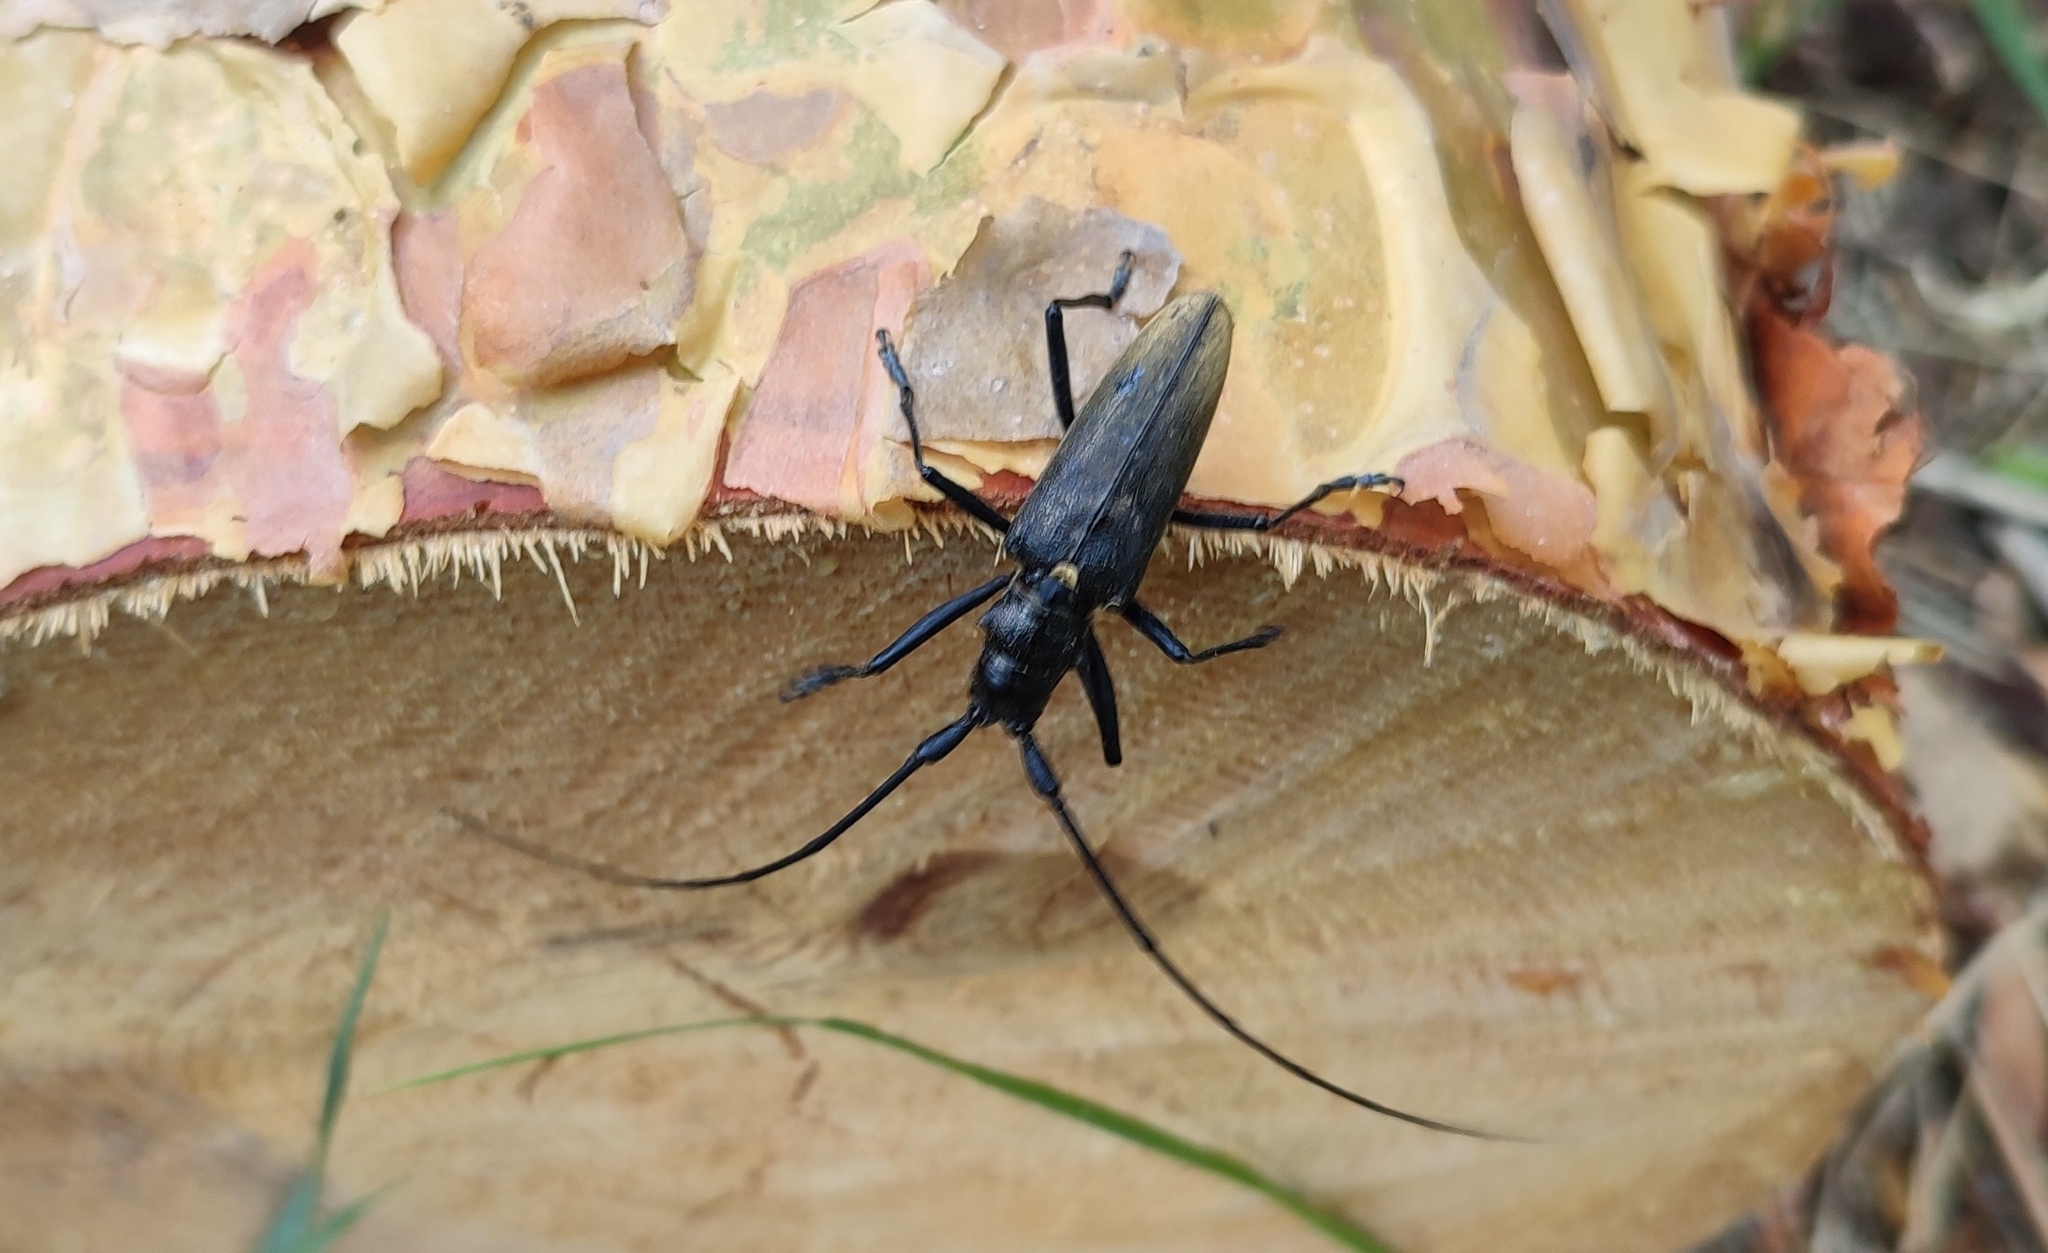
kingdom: Animalia
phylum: Arthropoda
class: Insecta
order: Coleoptera
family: Cerambycidae
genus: Monochamus
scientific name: Monochamus urussovii
